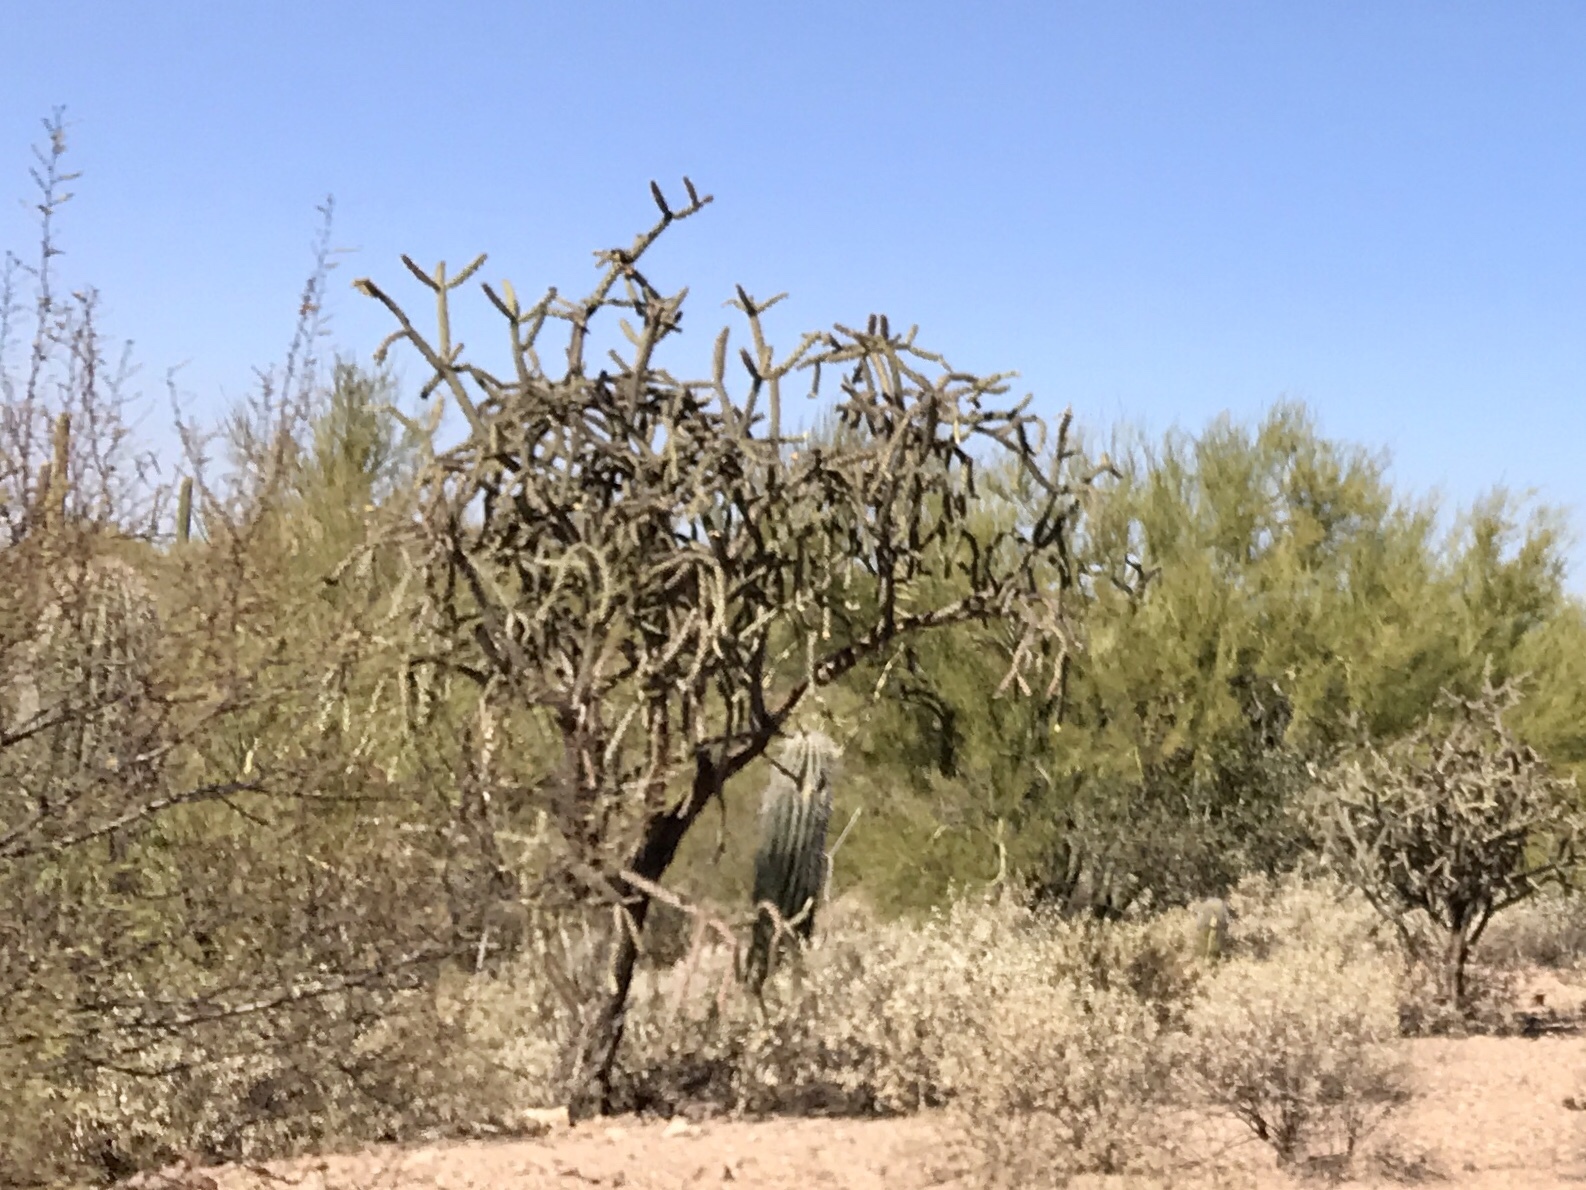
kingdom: Plantae
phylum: Tracheophyta
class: Magnoliopsida
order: Caryophyllales
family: Cactaceae
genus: Cylindropuntia
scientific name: Cylindropuntia thurberi
